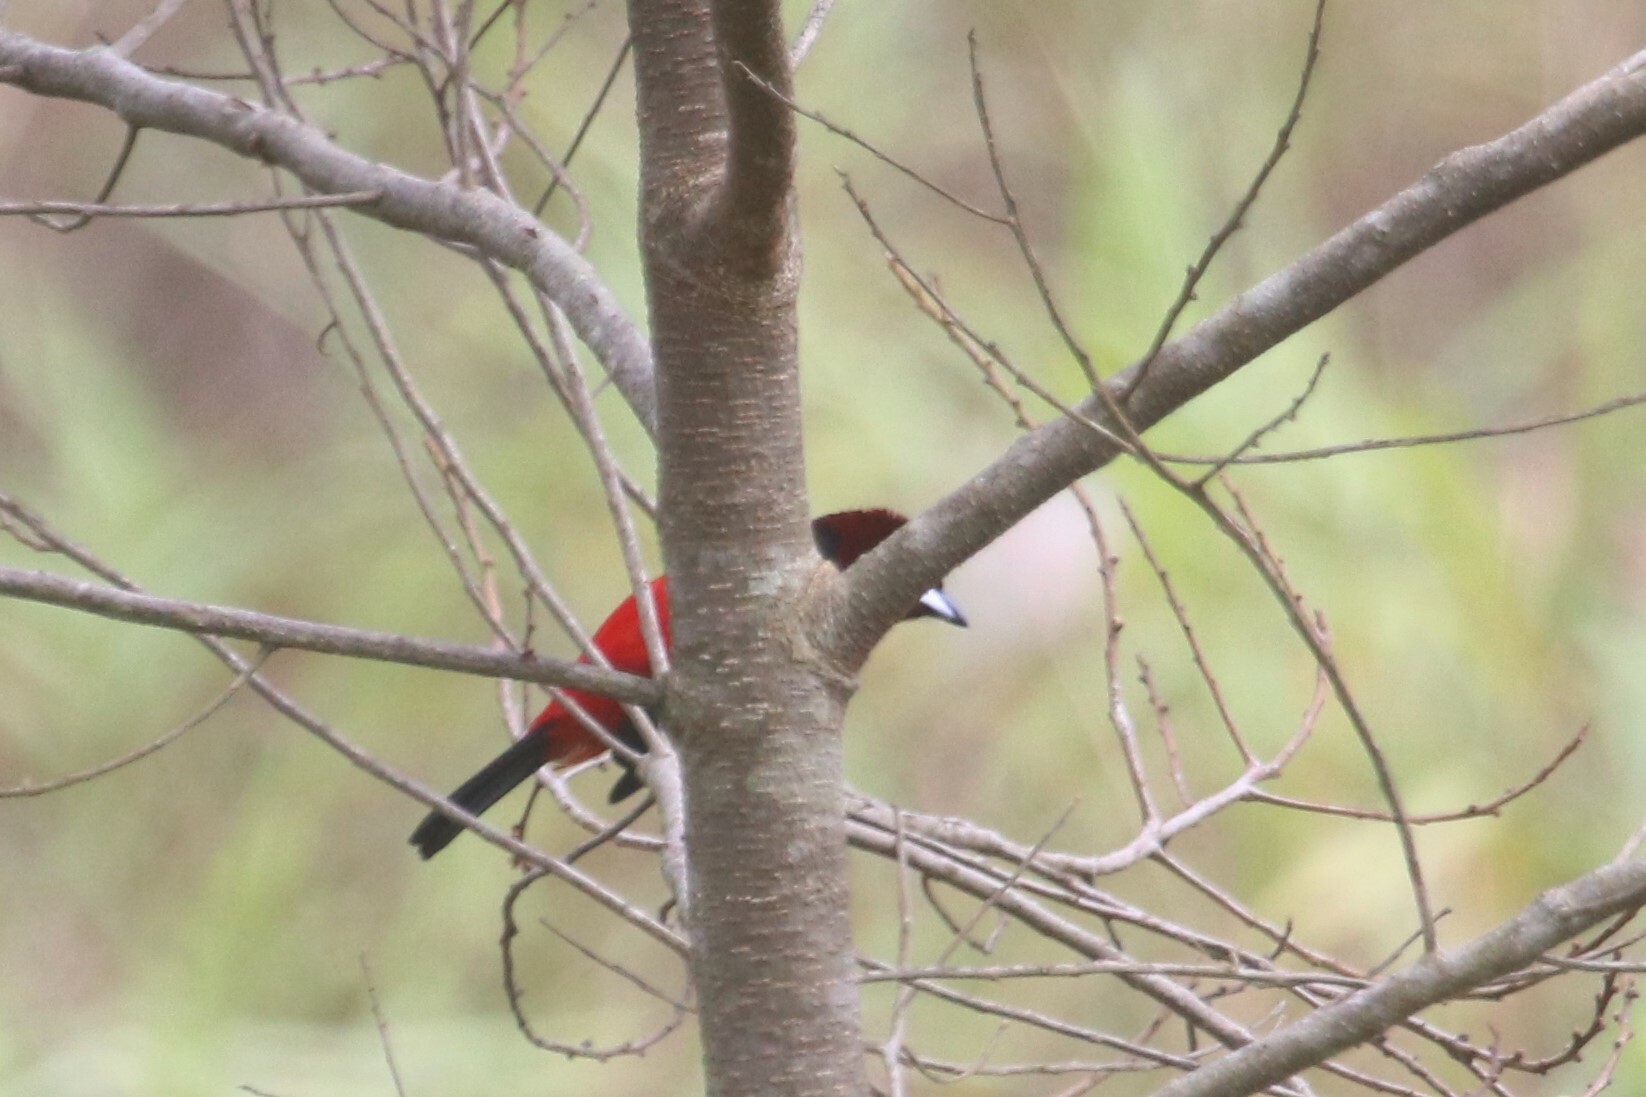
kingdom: Animalia
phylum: Chordata
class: Aves
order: Passeriformes
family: Thraupidae
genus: Ramphocelus
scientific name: Ramphocelus dimidiatus
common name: Crimson-backed tanager
